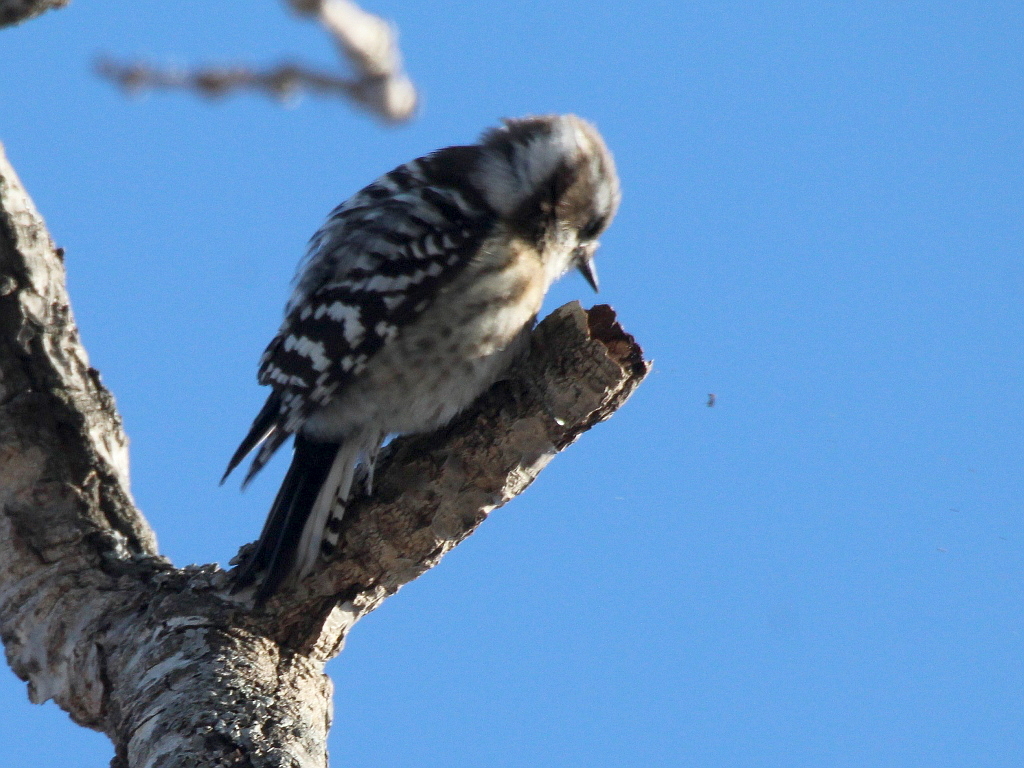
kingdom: Animalia
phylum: Chordata
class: Aves
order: Piciformes
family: Picidae
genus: Yungipicus
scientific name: Yungipicus kizuki
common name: Japanese pygmy woodpecker
